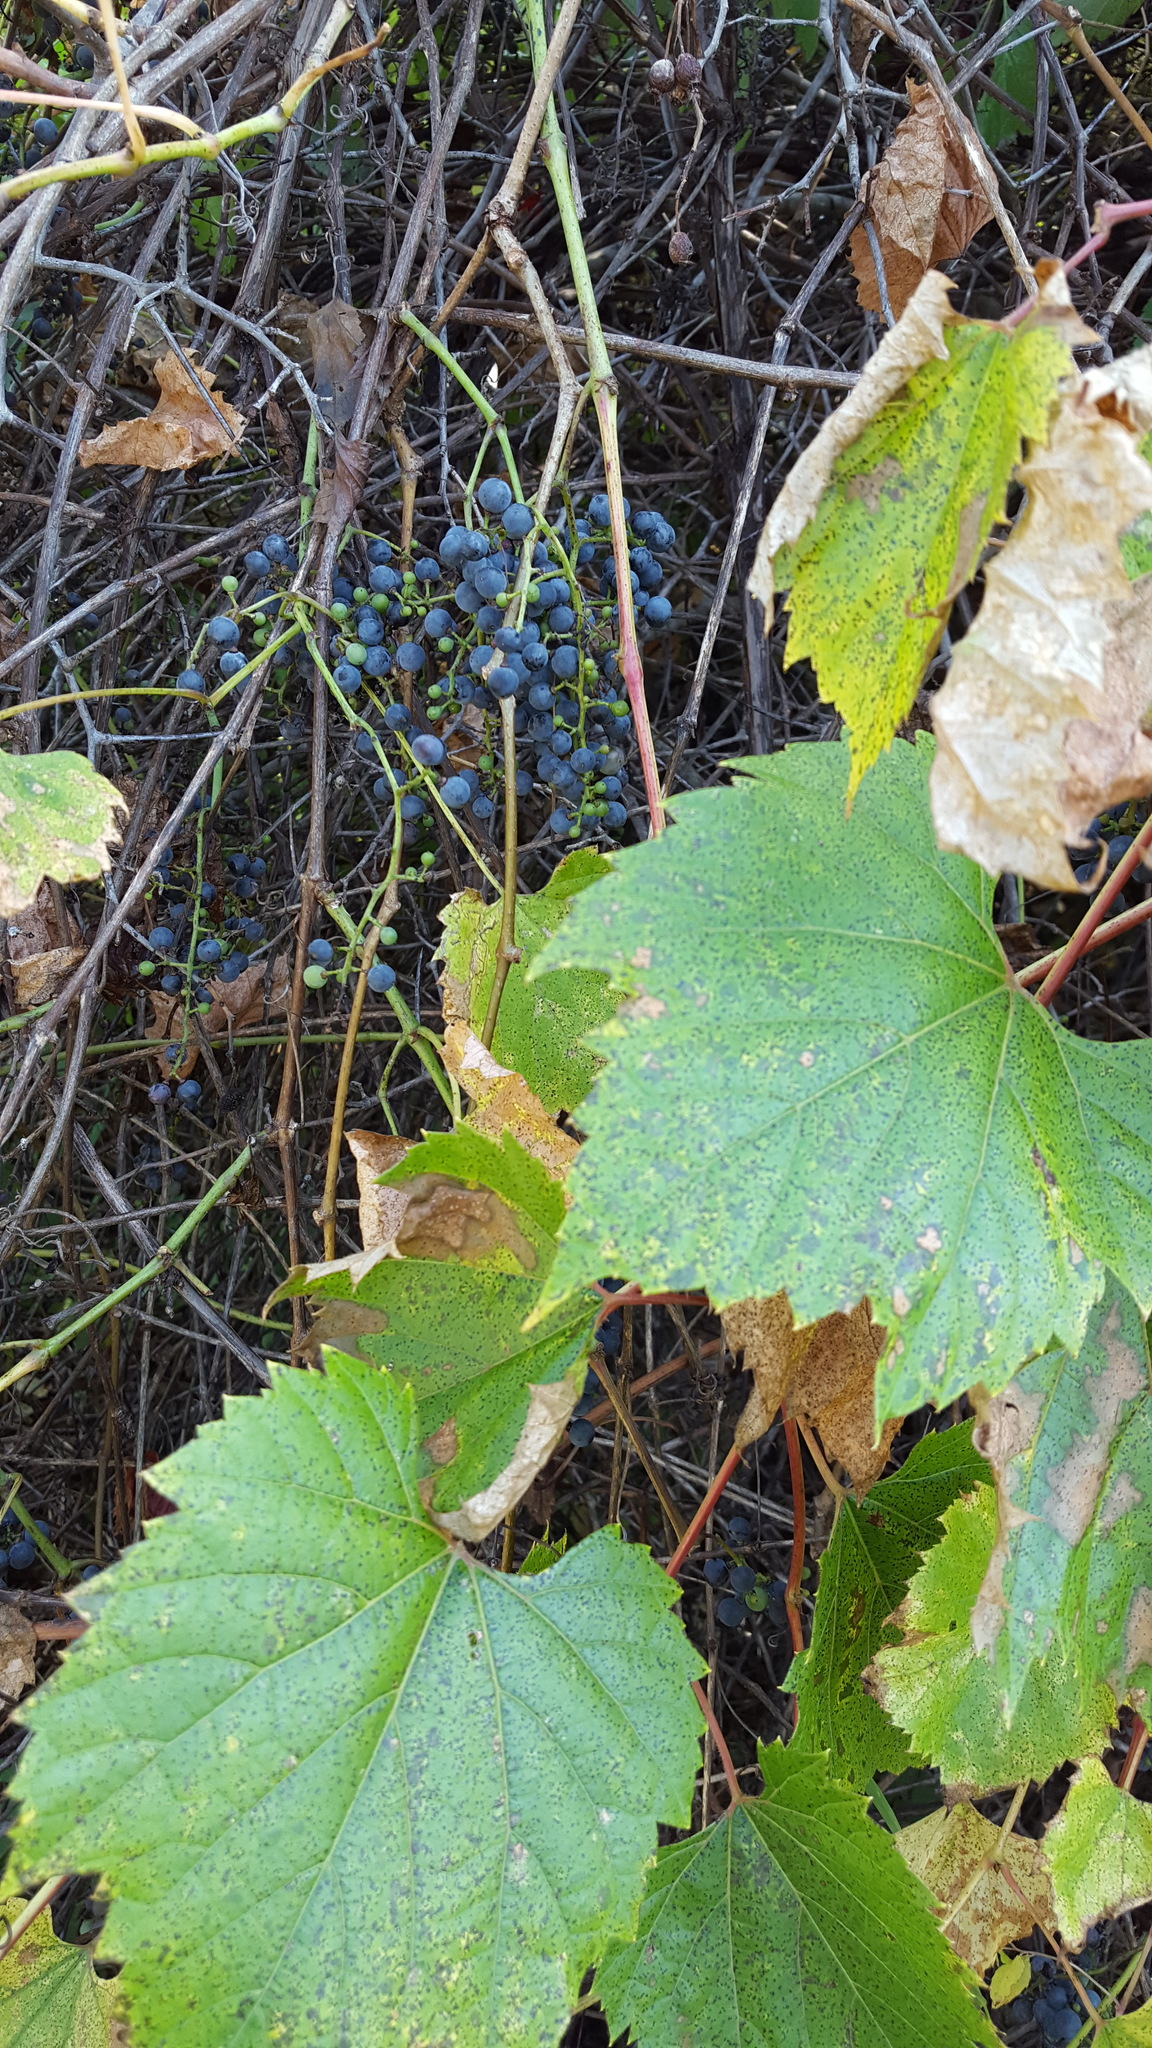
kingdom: Plantae
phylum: Tracheophyta
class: Magnoliopsida
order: Vitales
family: Vitaceae
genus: Vitis
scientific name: Vitis riparia
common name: Frost grape
